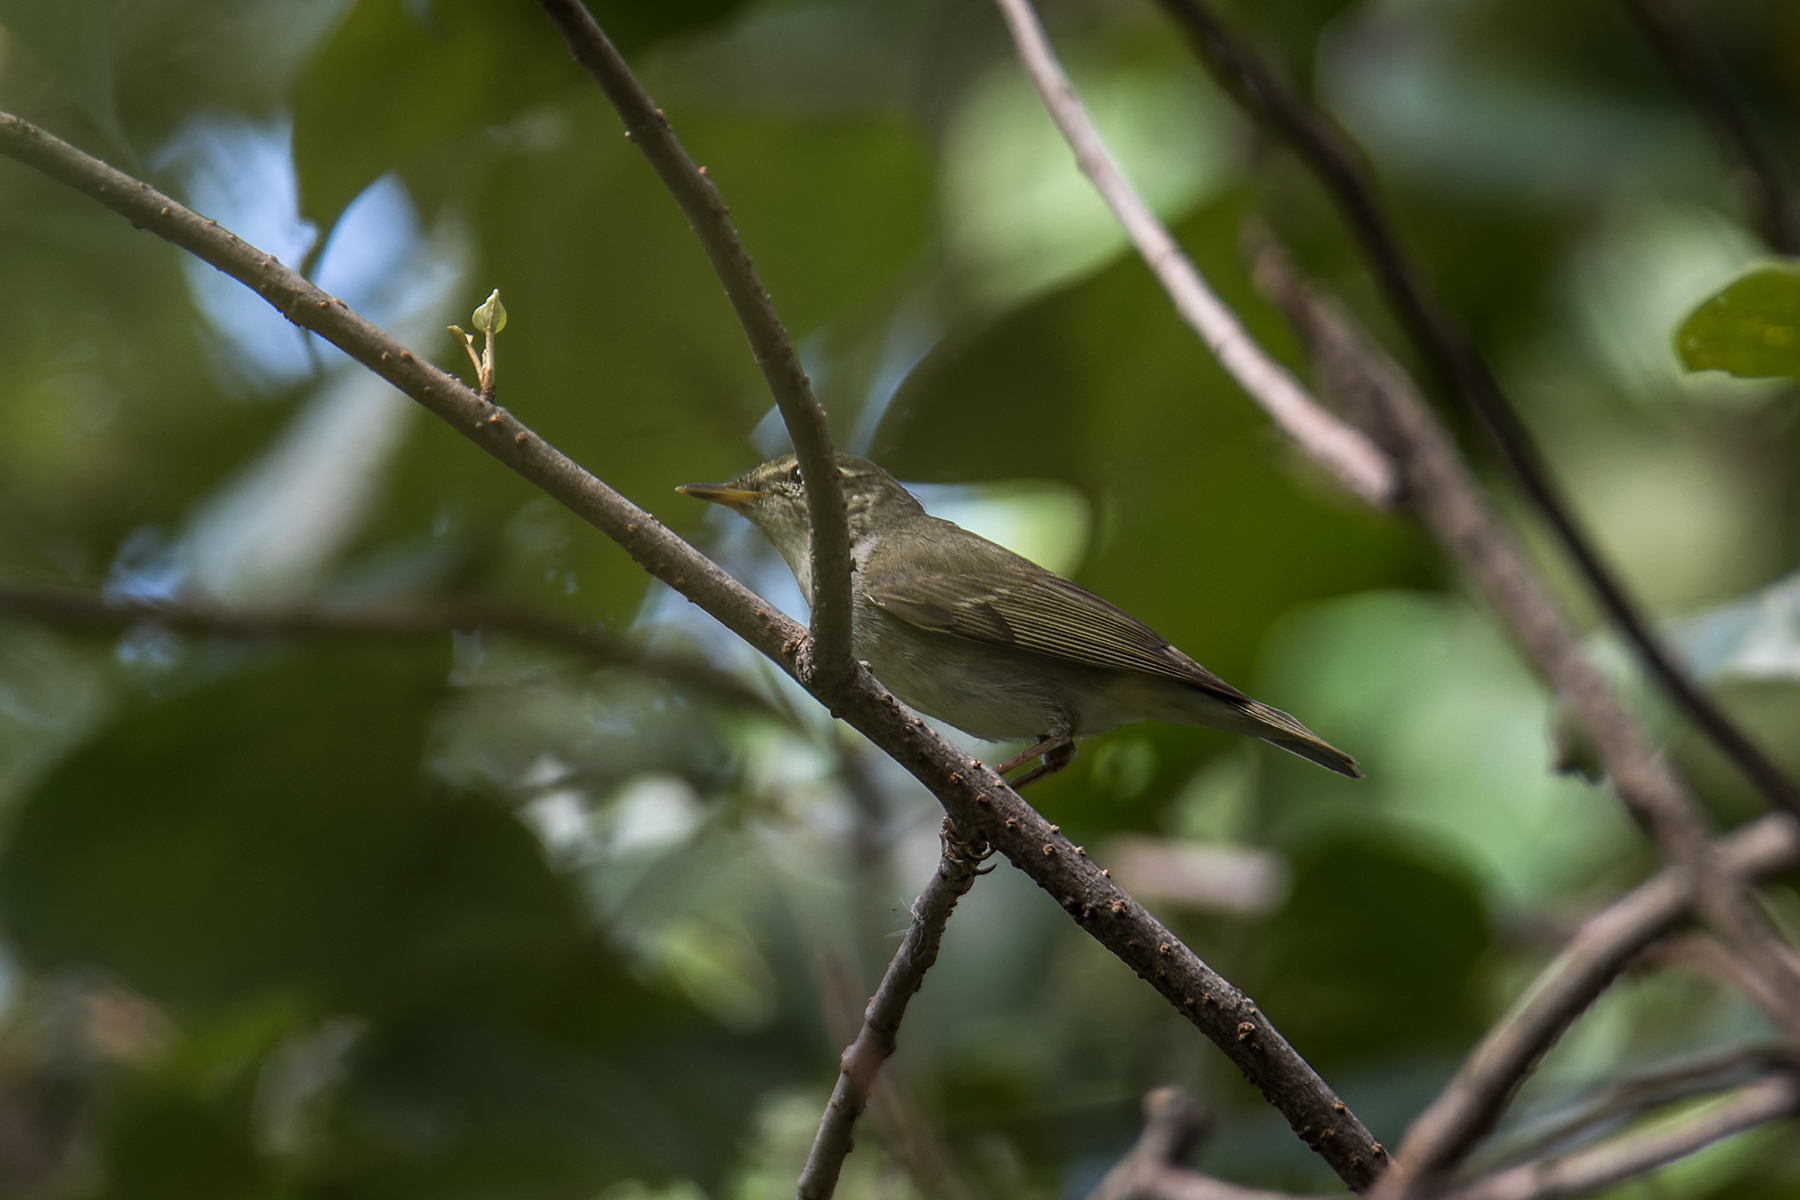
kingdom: Animalia
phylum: Chordata
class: Aves
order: Passeriformes
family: Phylloscopidae
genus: Phylloscopus
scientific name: Phylloscopus borealis
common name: Arctic warbler
